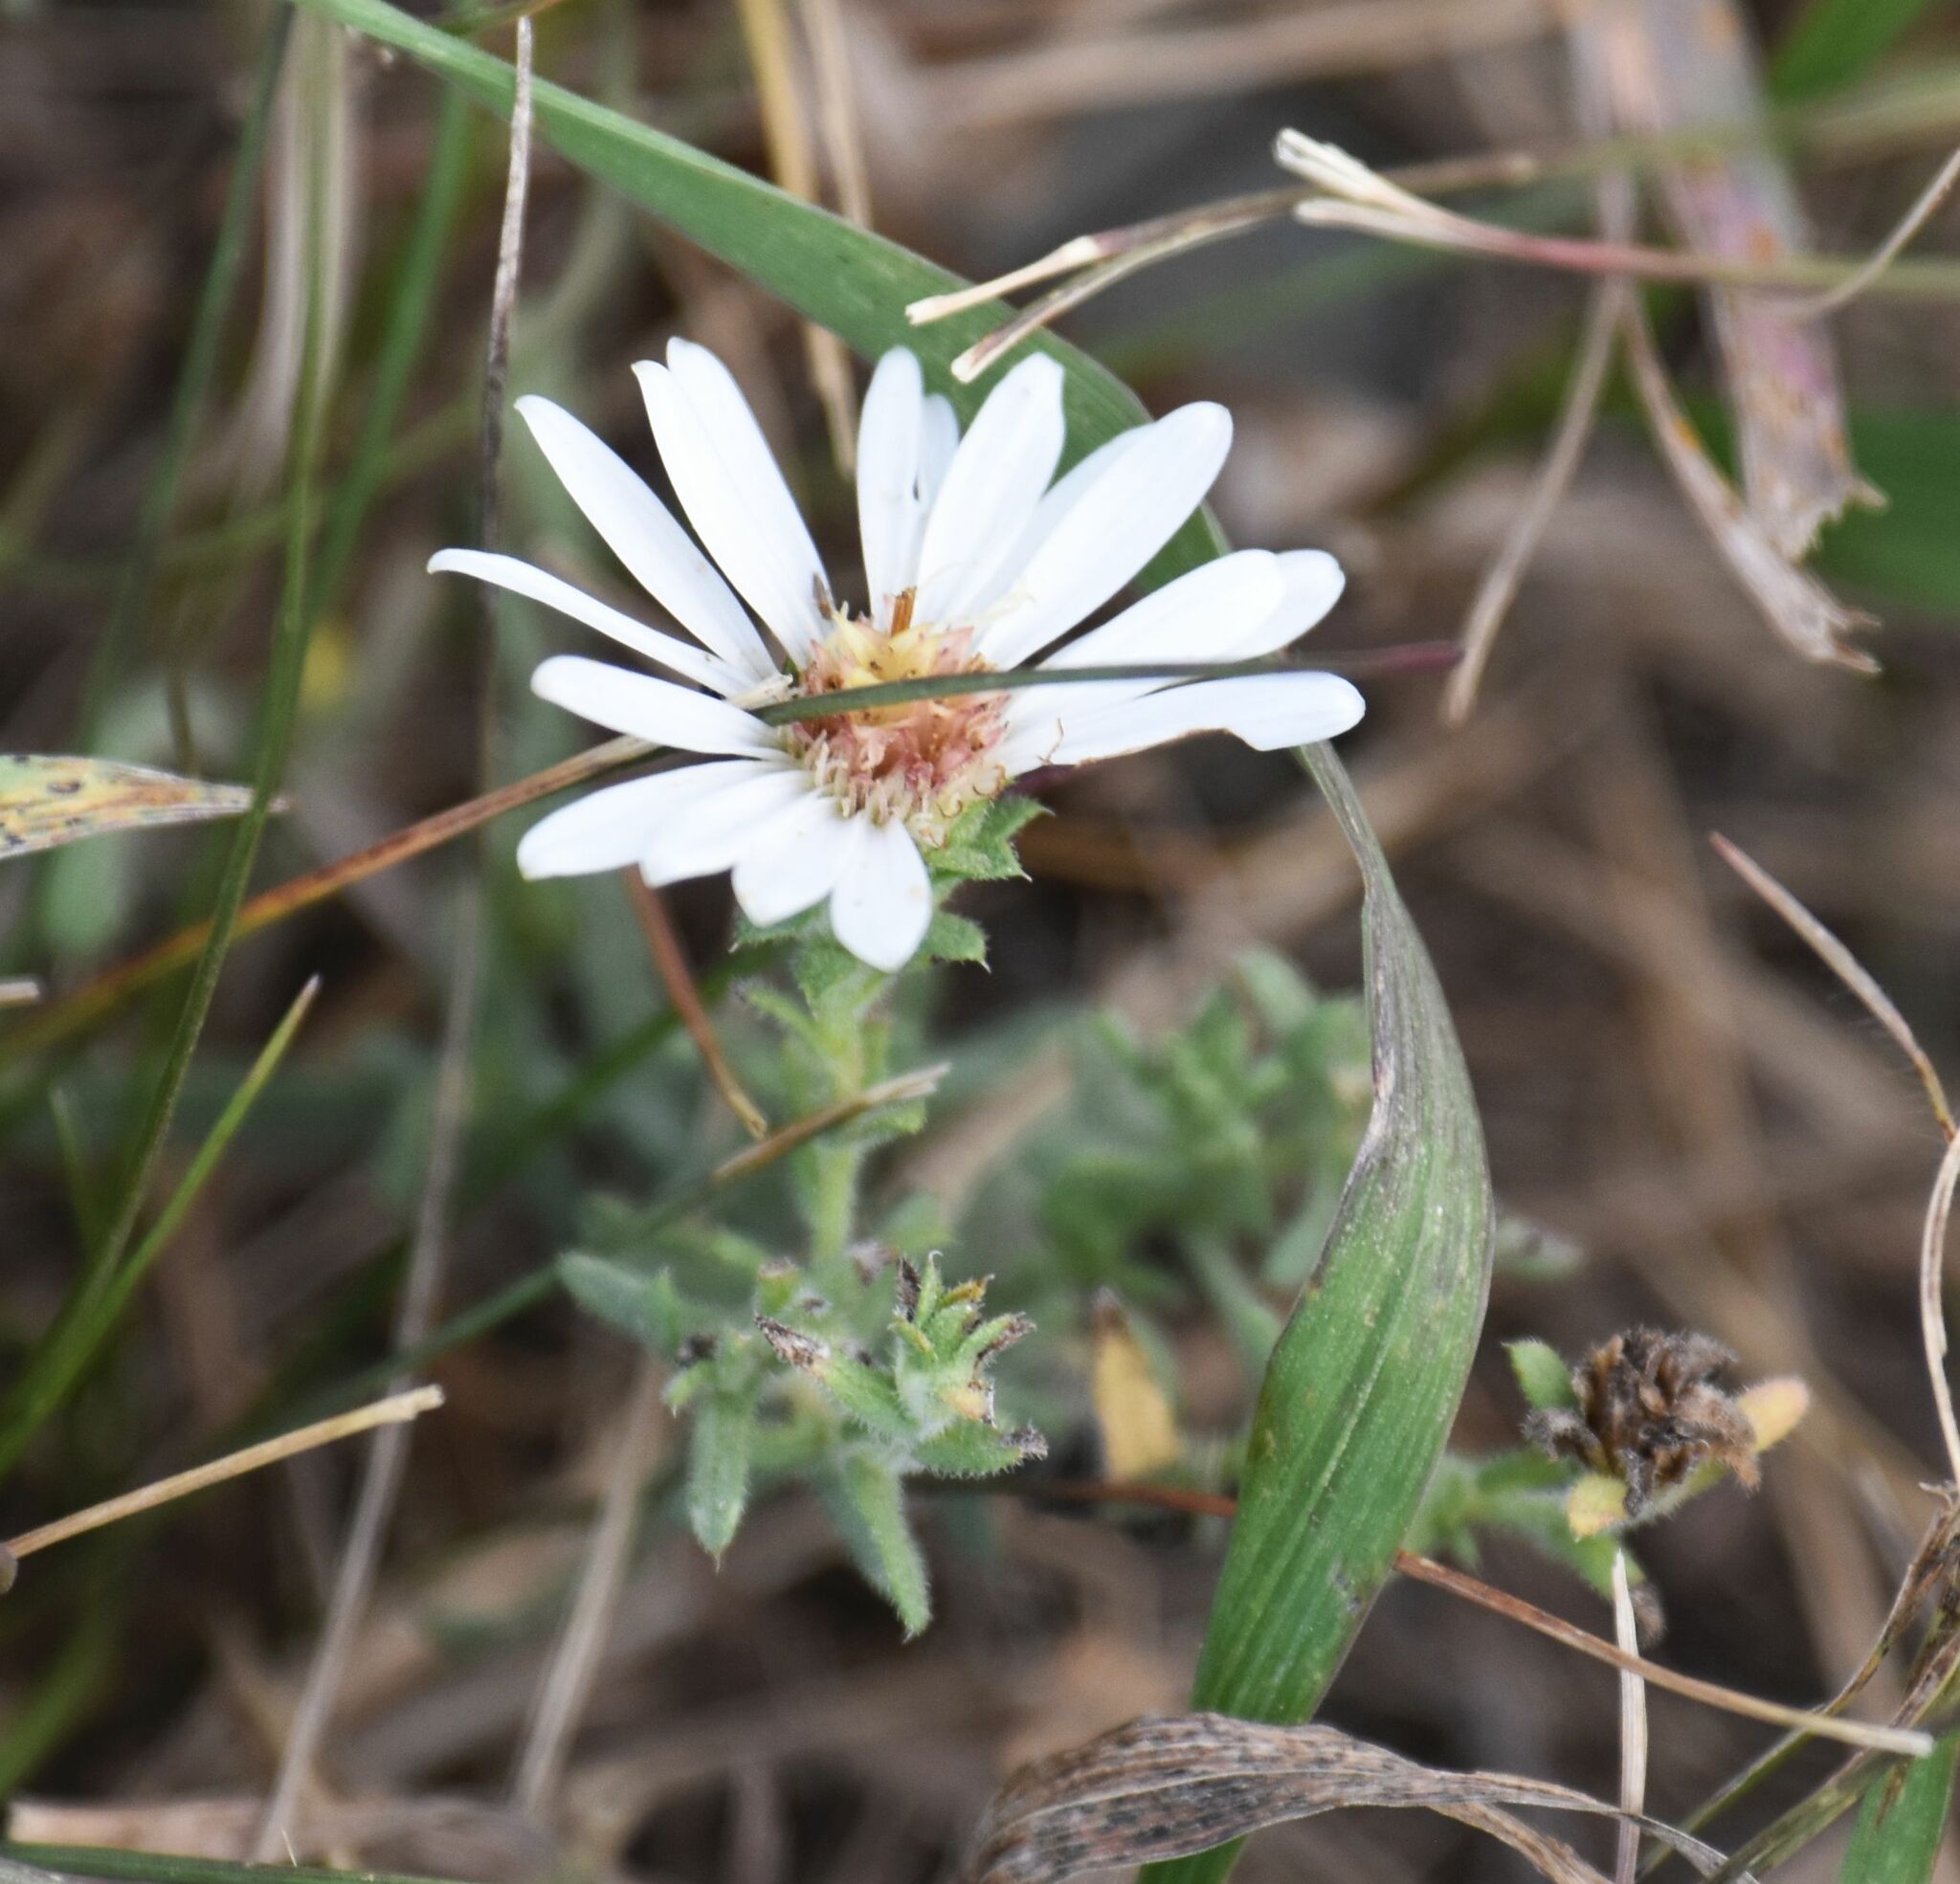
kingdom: Plantae
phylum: Tracheophyta
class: Magnoliopsida
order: Asterales
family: Asteraceae
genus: Symphyotrichum
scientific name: Symphyotrichum ericoides
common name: Heath aster
